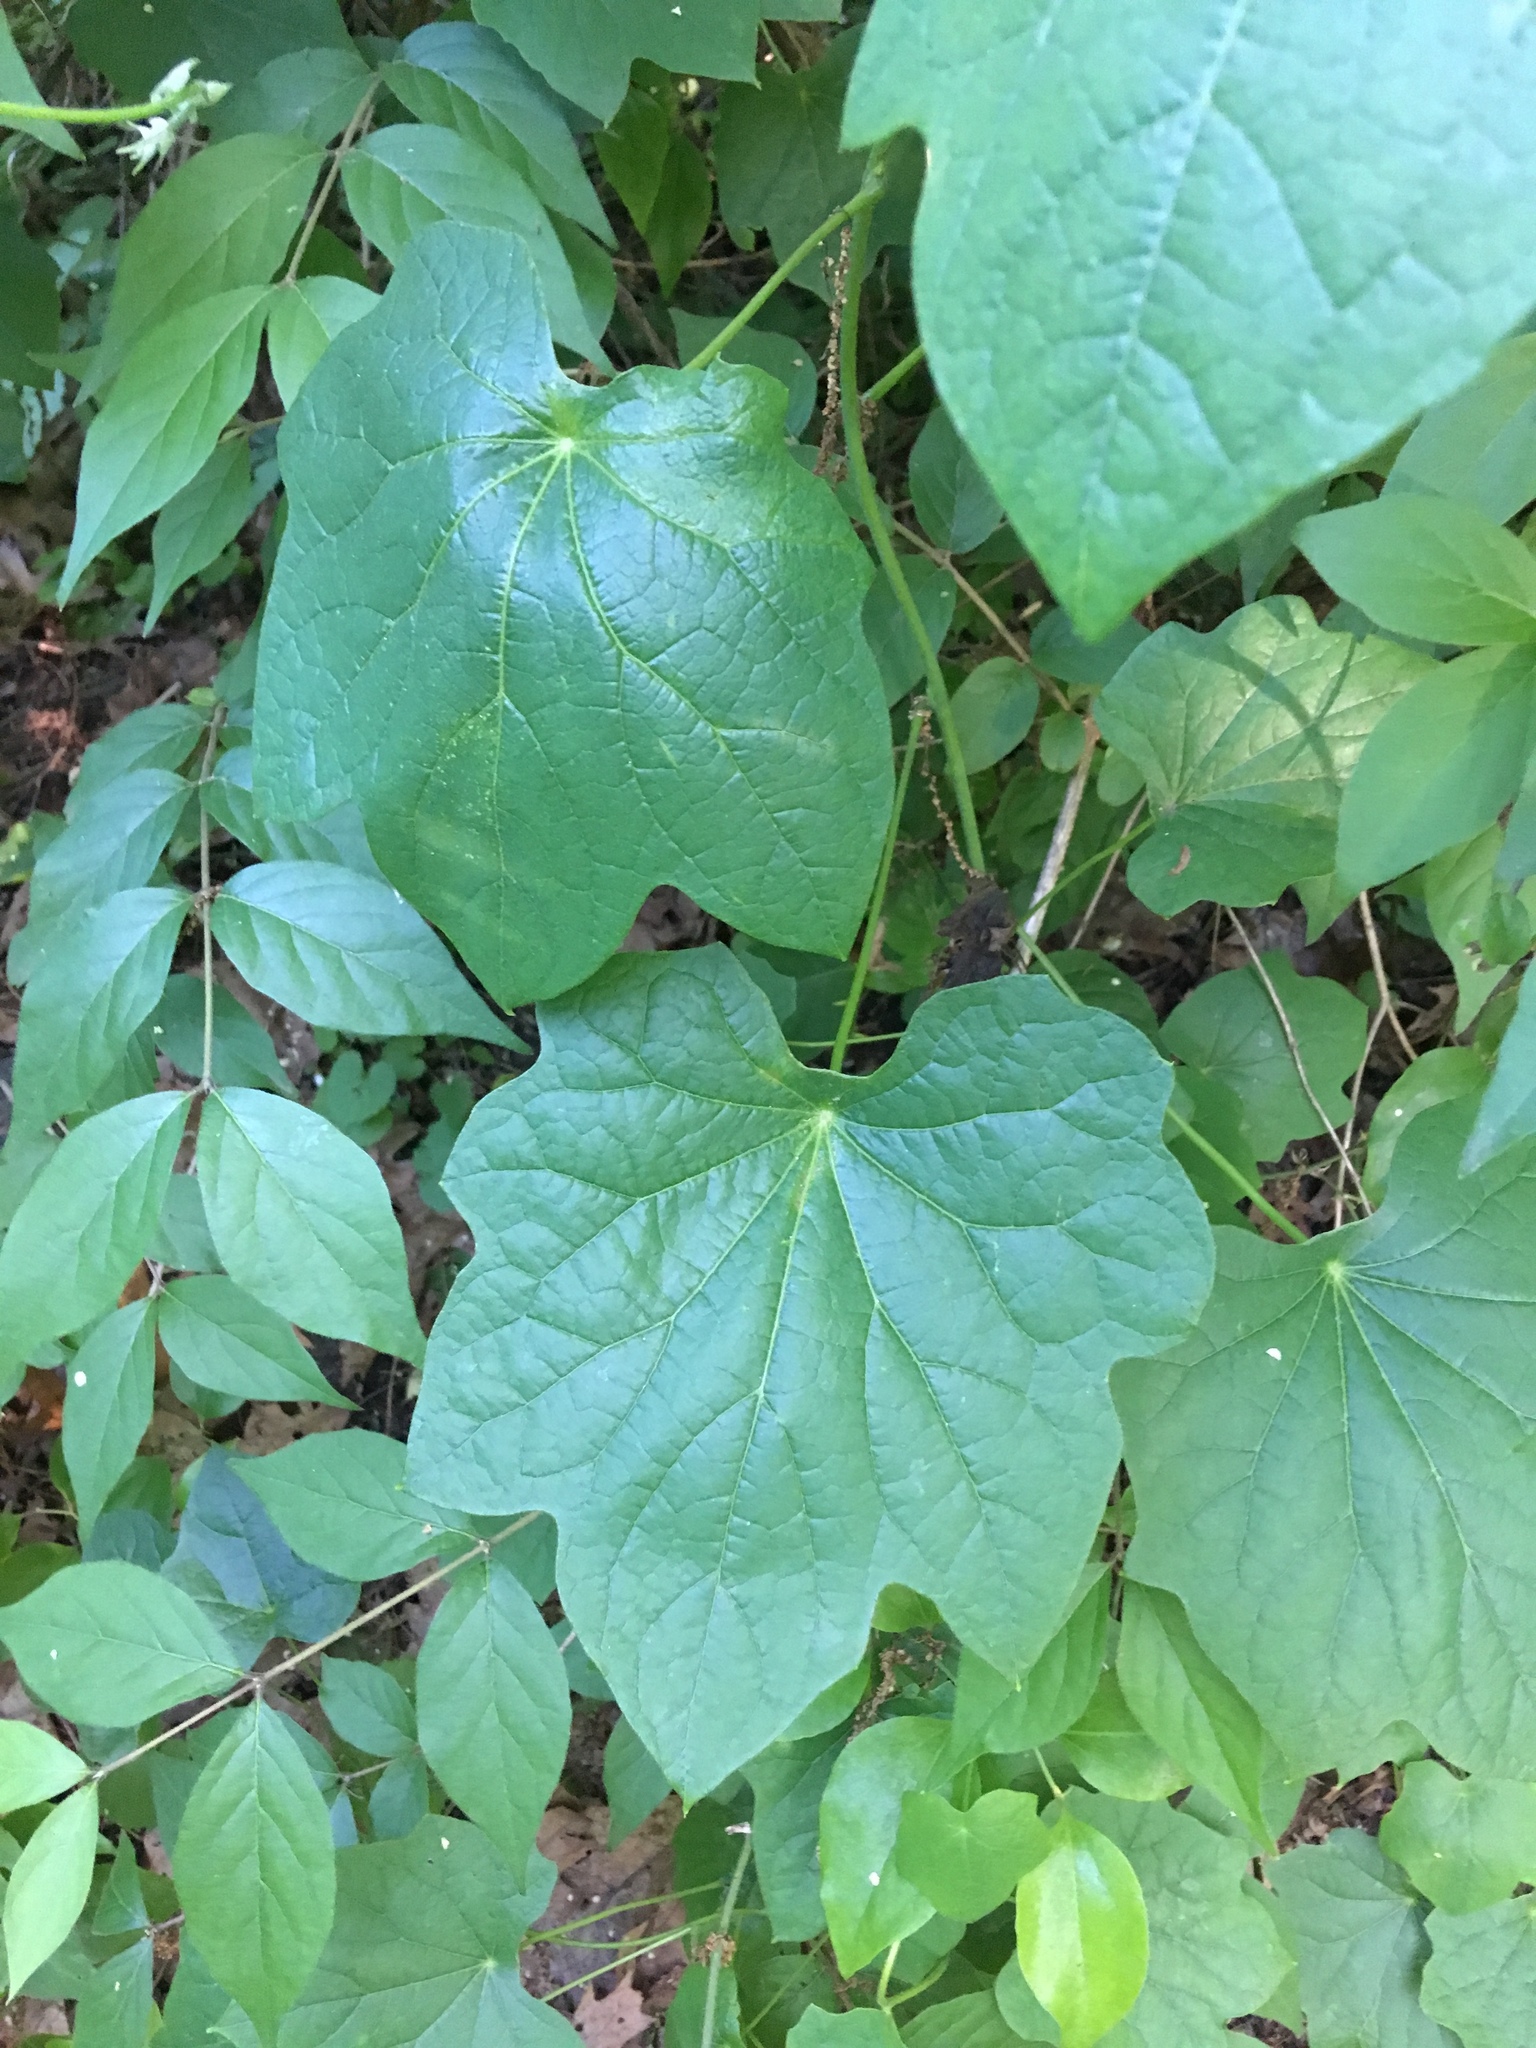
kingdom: Plantae
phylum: Tracheophyta
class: Magnoliopsida
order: Ranunculales
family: Menispermaceae
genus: Menispermum
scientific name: Menispermum canadense
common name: Moonseed
